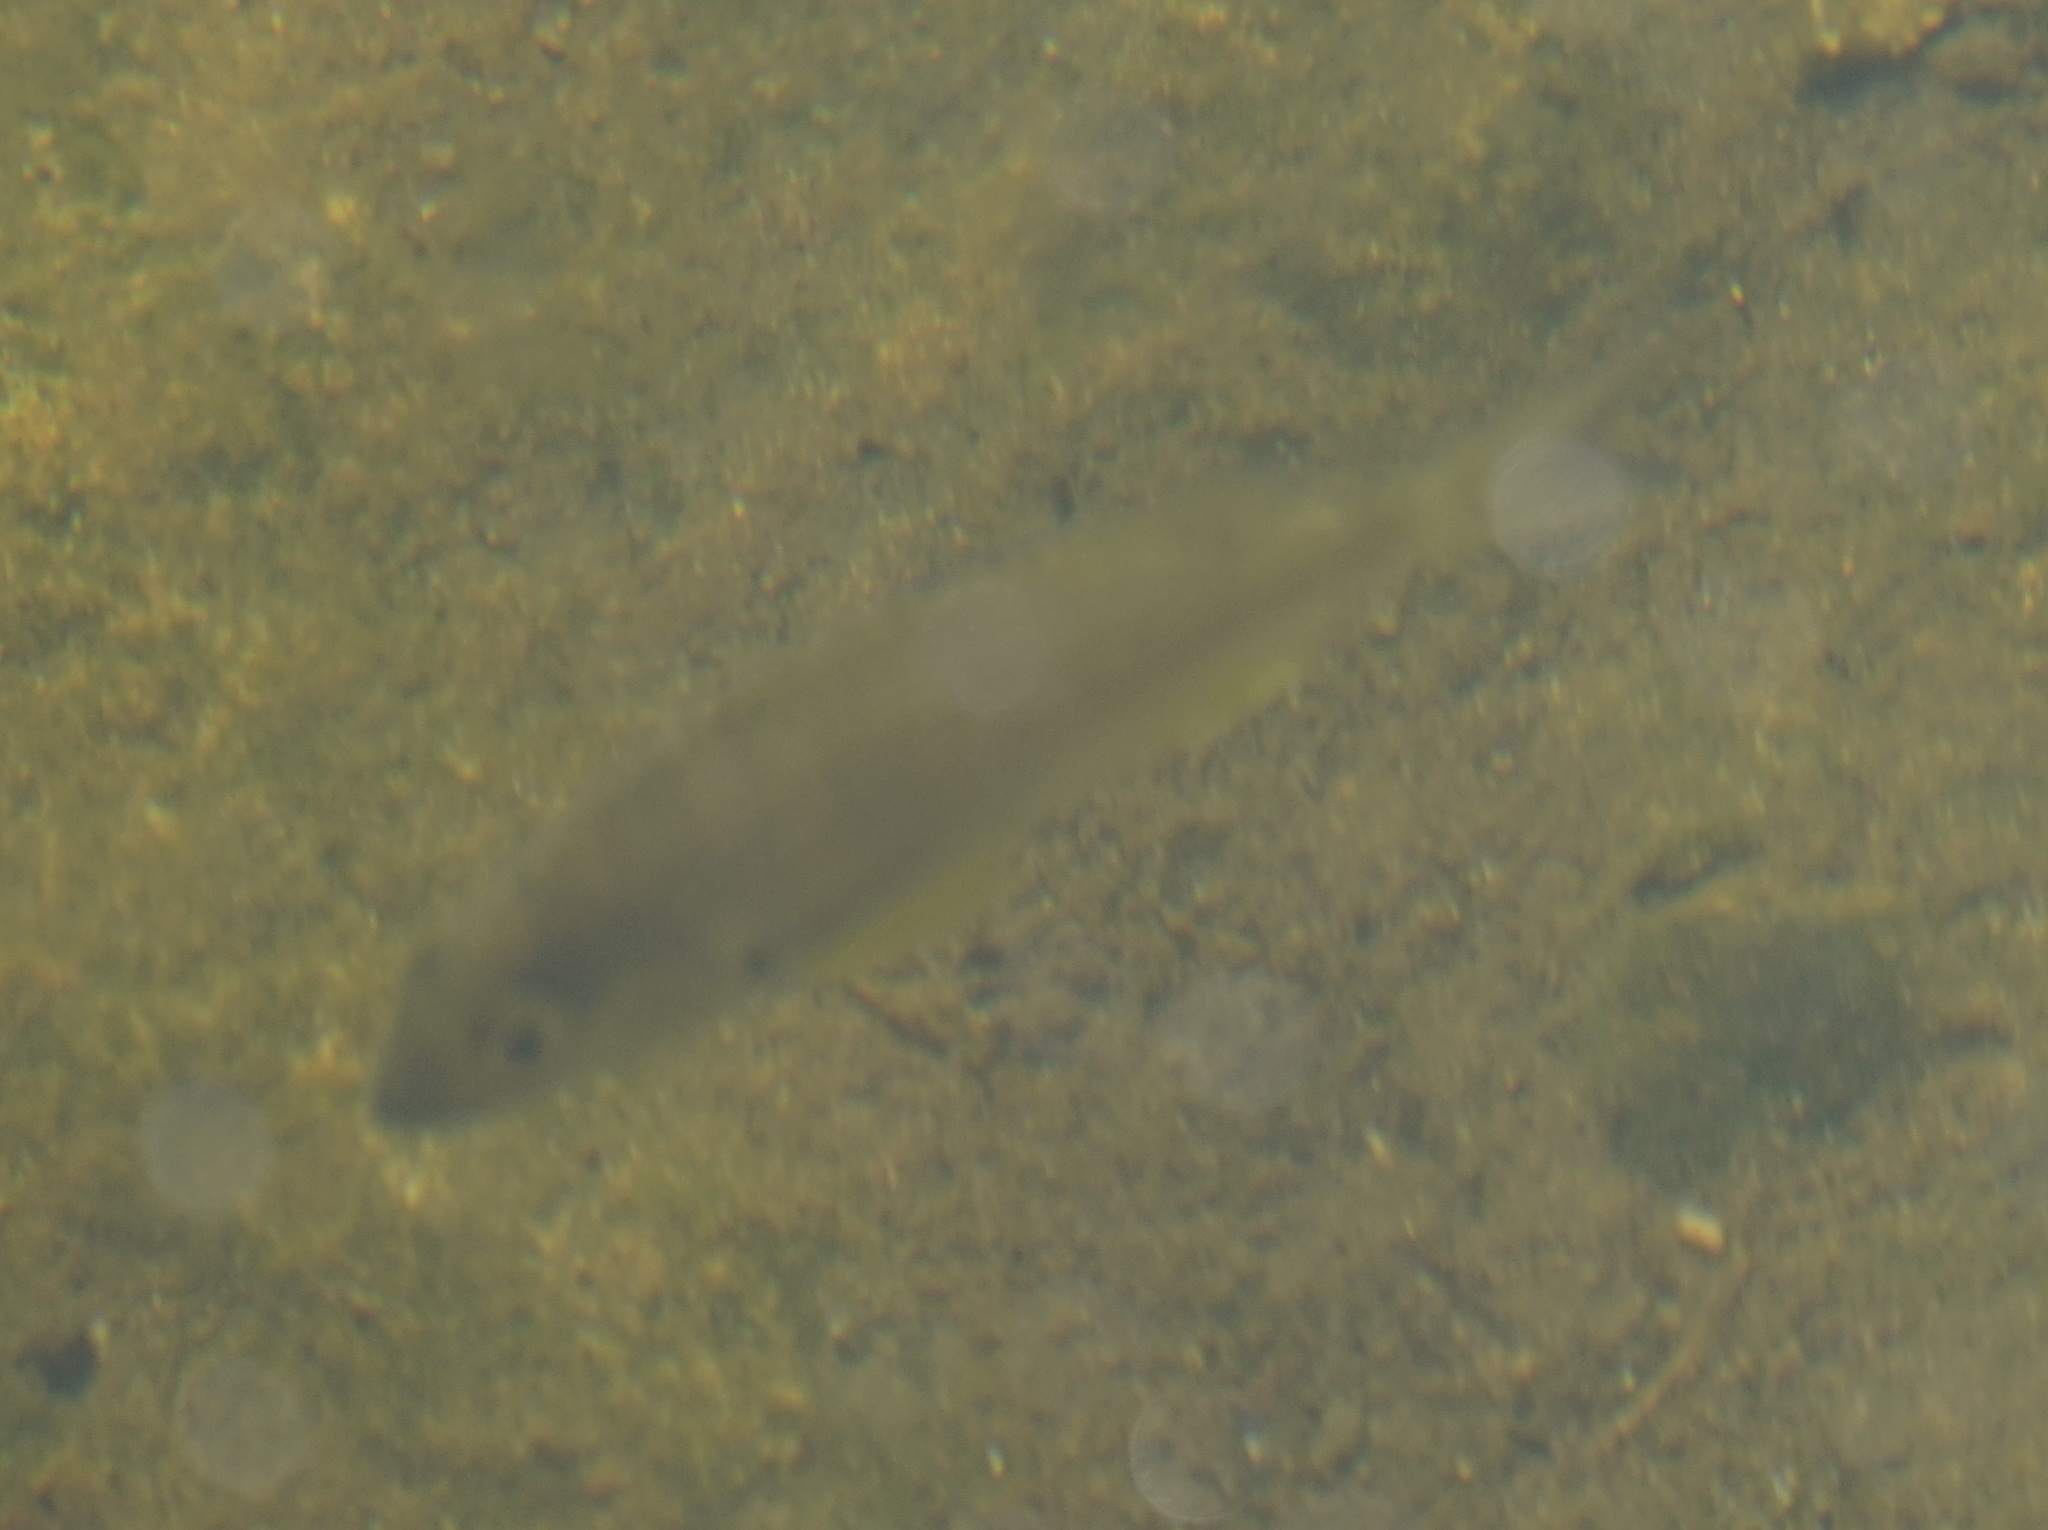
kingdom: Animalia
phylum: Chordata
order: Perciformes
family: Sparidae
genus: Acanthopagrus
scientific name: Acanthopagrus australis
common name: Surf bream
